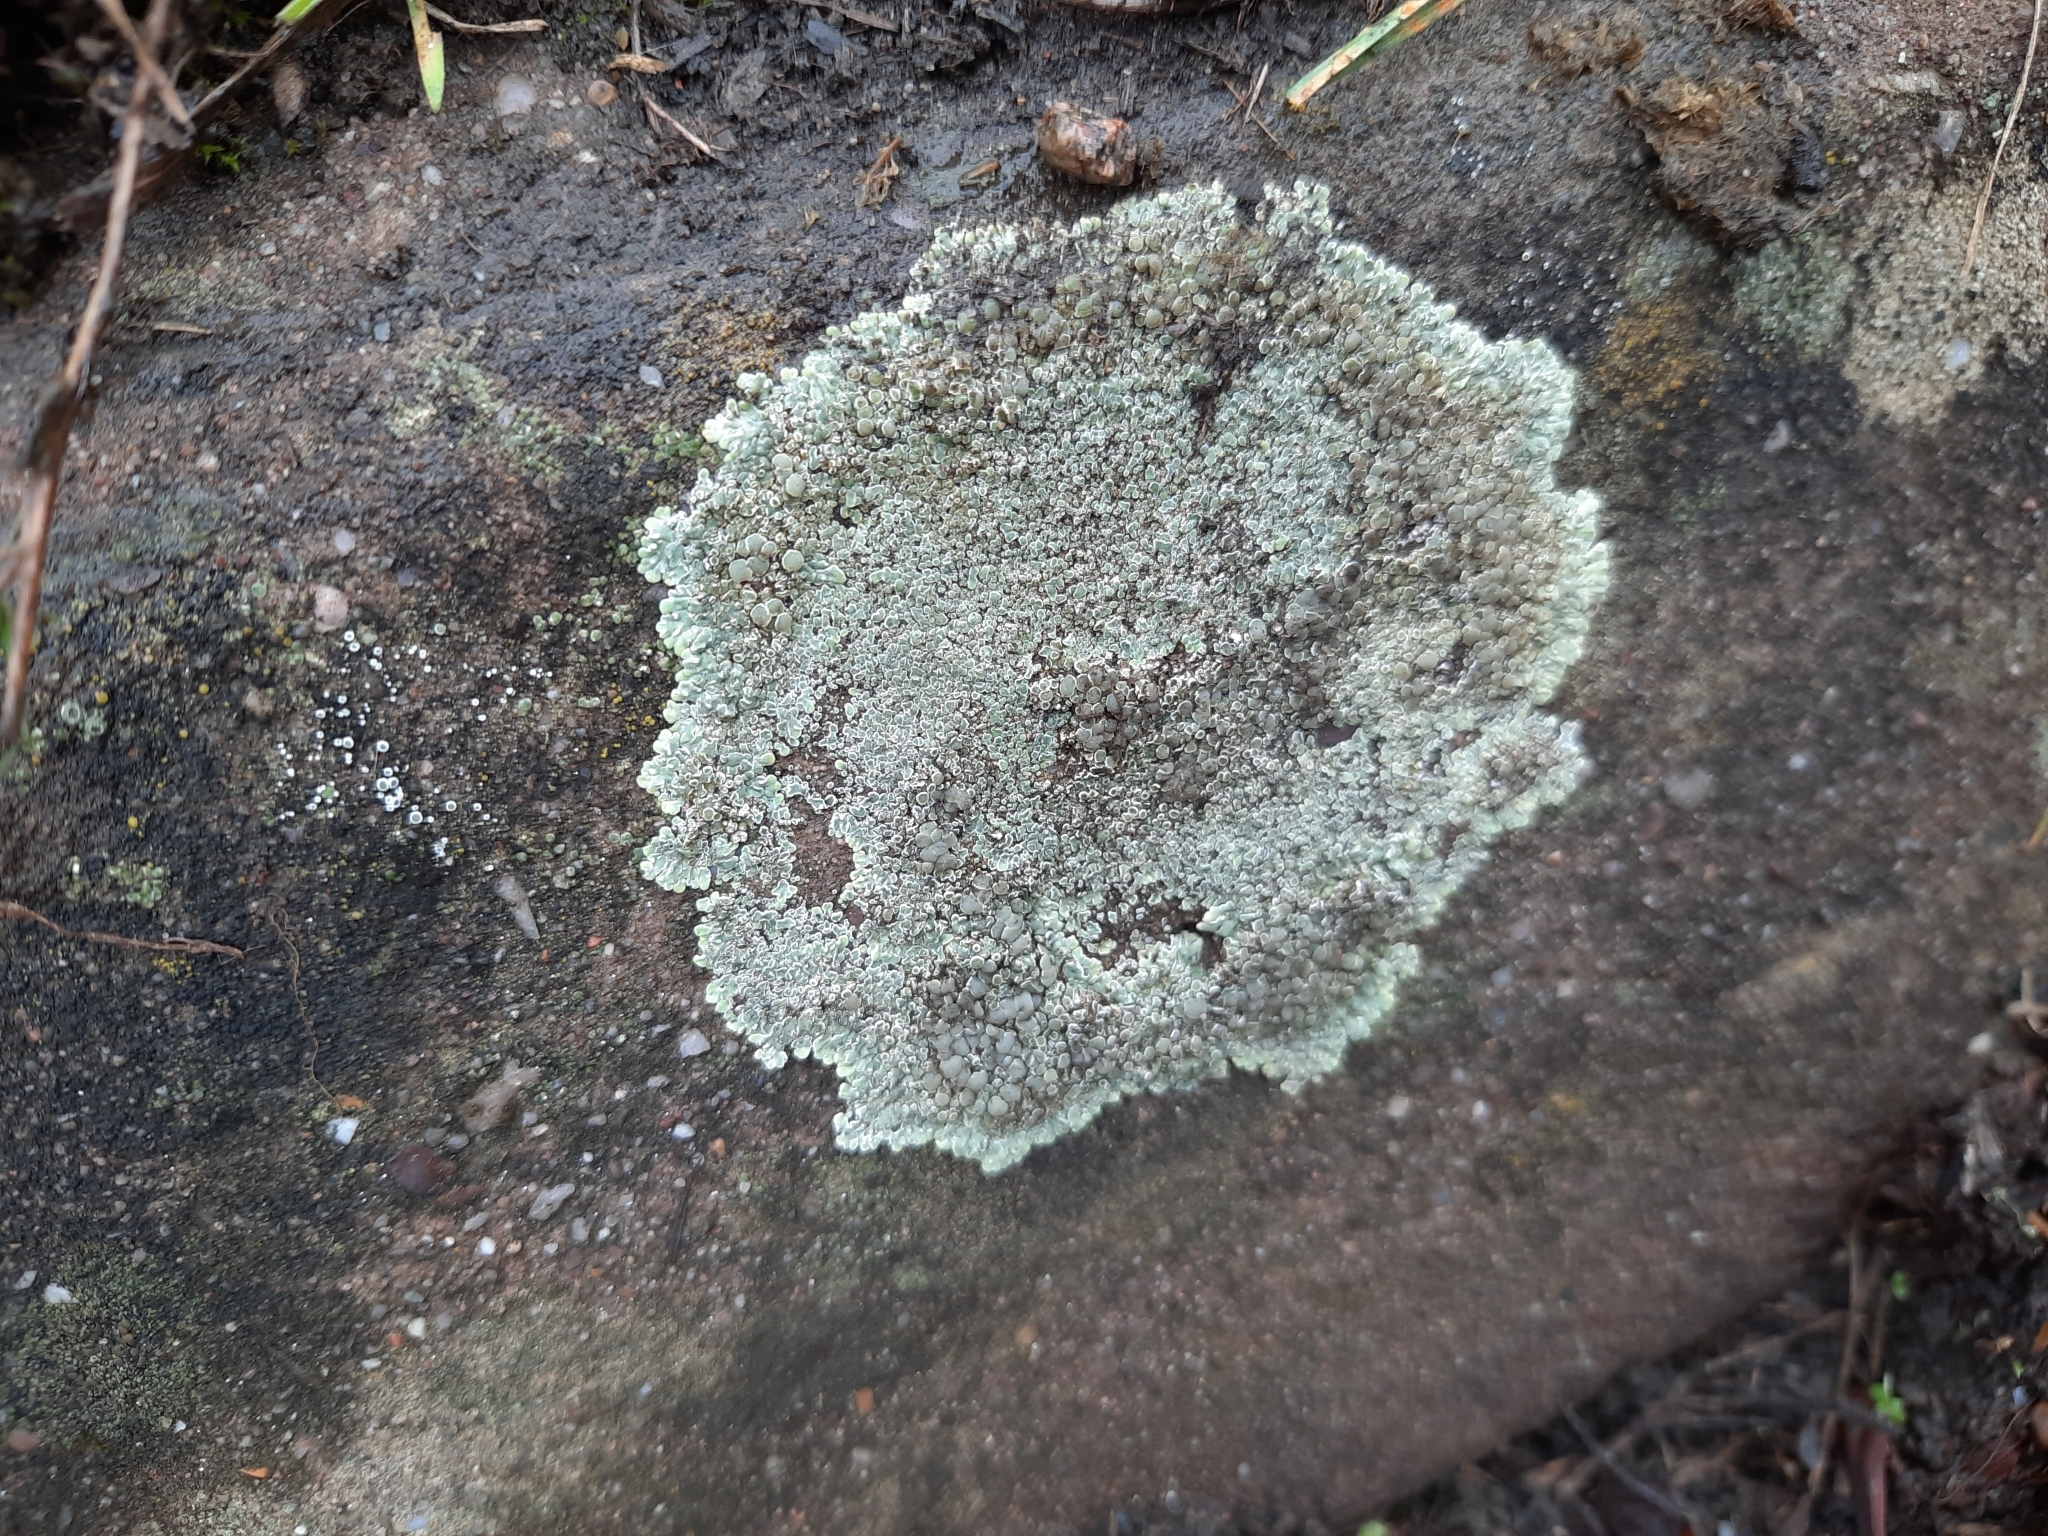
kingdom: Fungi
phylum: Ascomycota
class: Lecanoromycetes
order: Lecanorales
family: Lecanoraceae
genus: Protoparmeliopsis
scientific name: Protoparmeliopsis muralis
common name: Stonewall rim lichen
